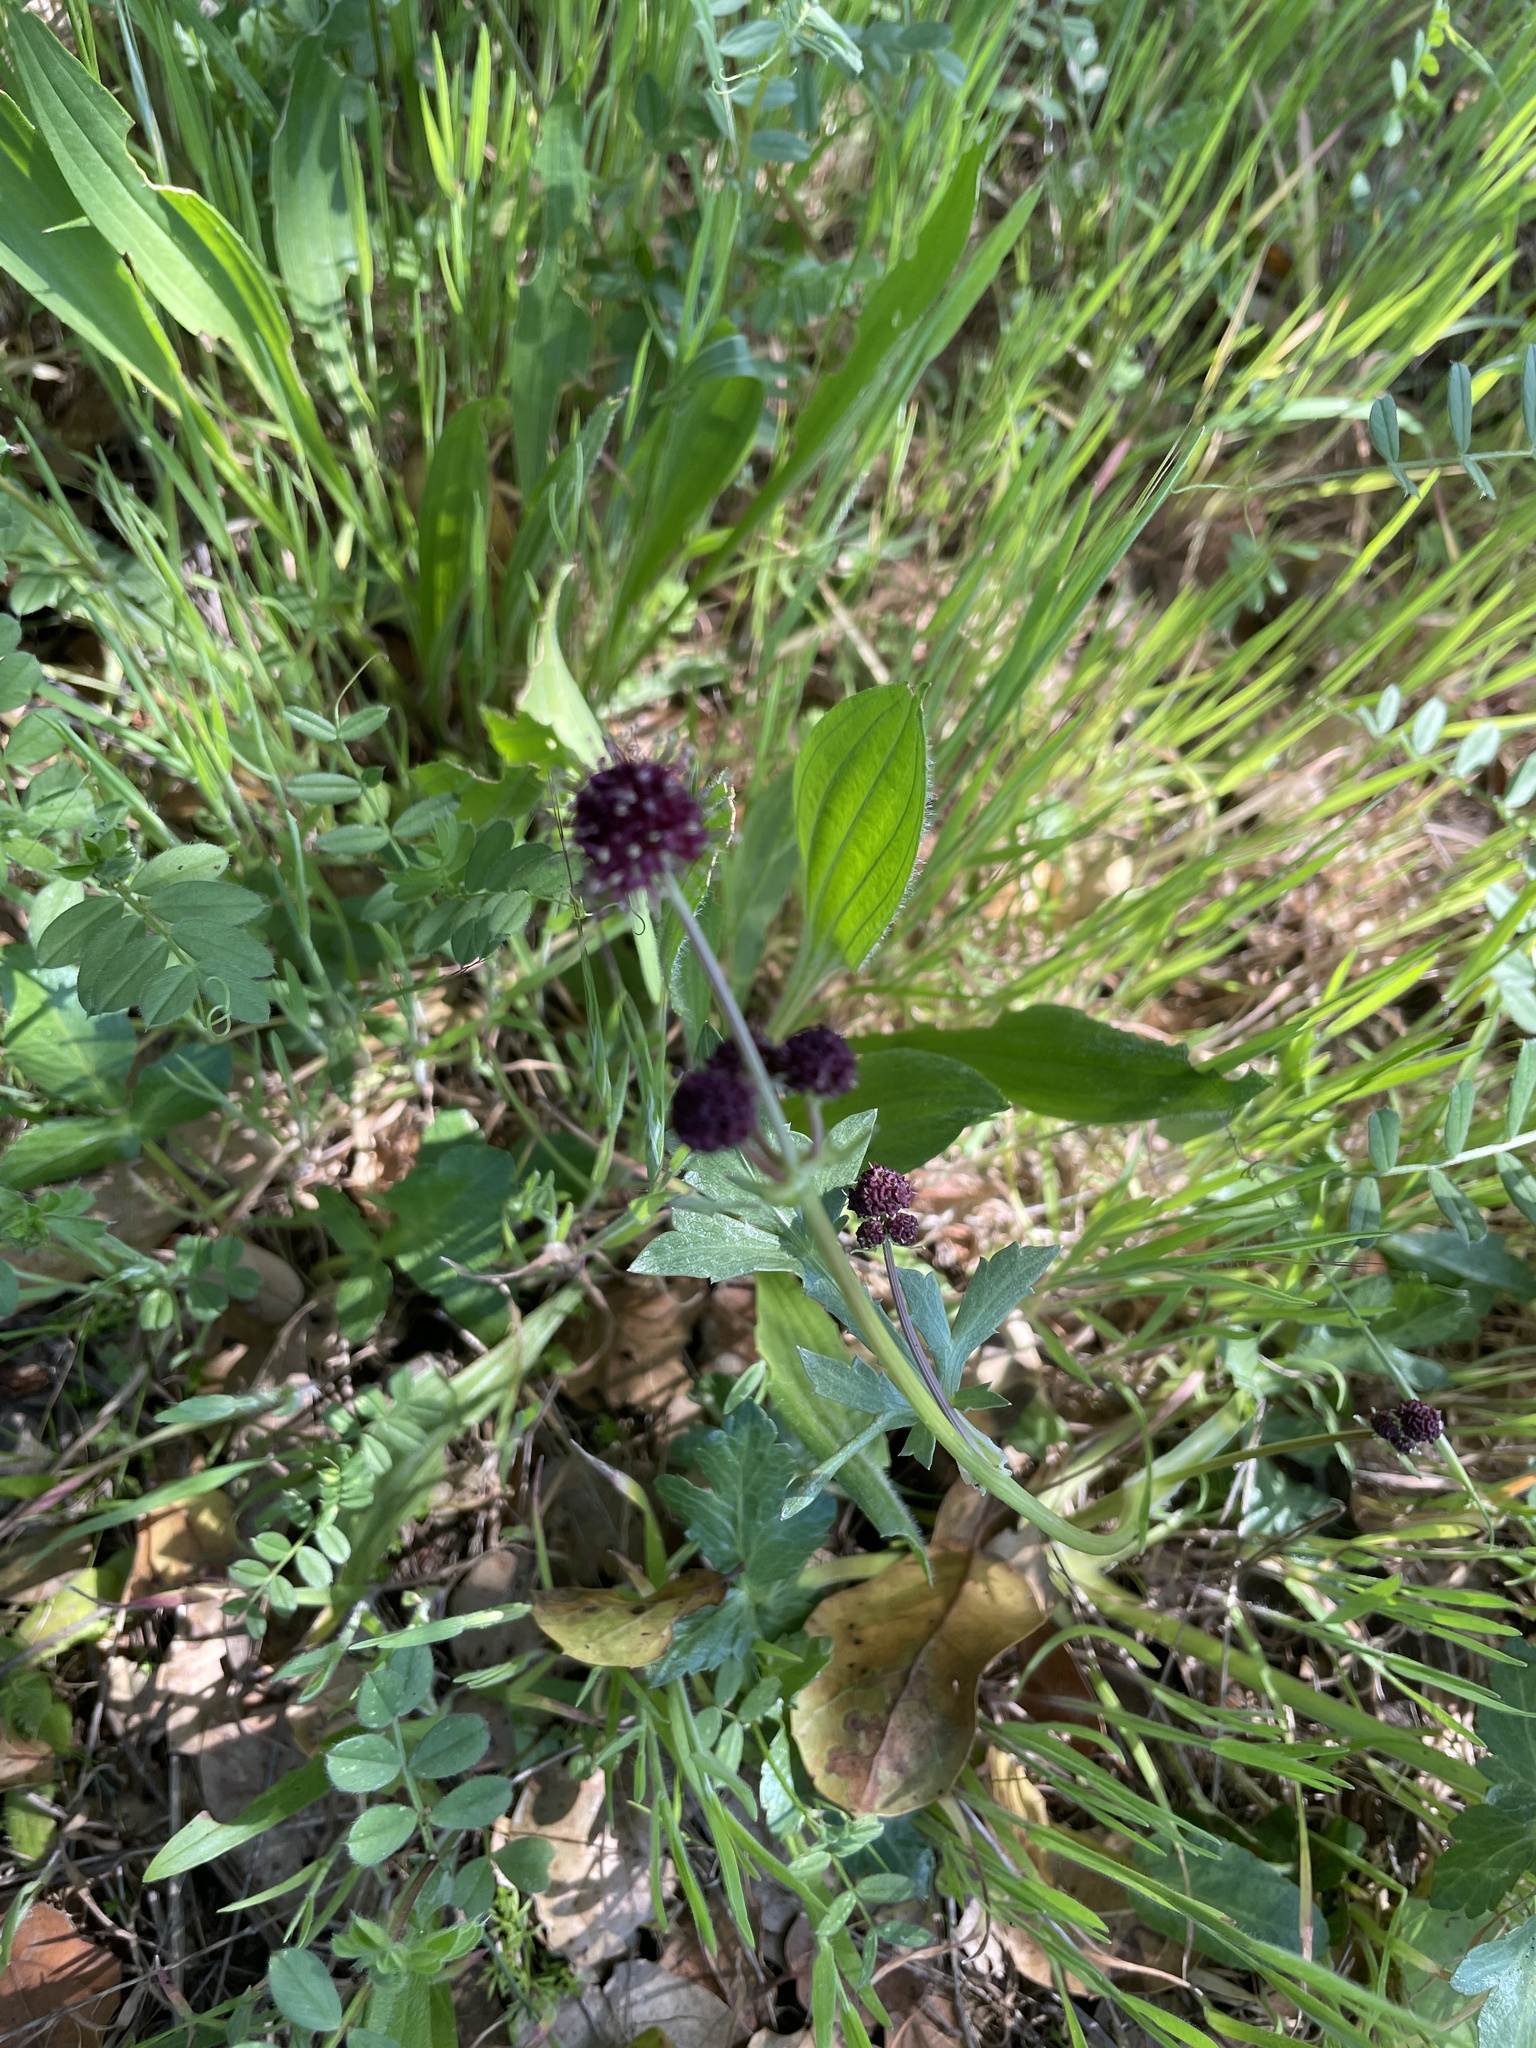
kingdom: Plantae
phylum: Tracheophyta
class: Magnoliopsida
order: Apiales
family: Apiaceae
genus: Sanicula
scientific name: Sanicula bipinnatifida
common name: Shoe-buttons
